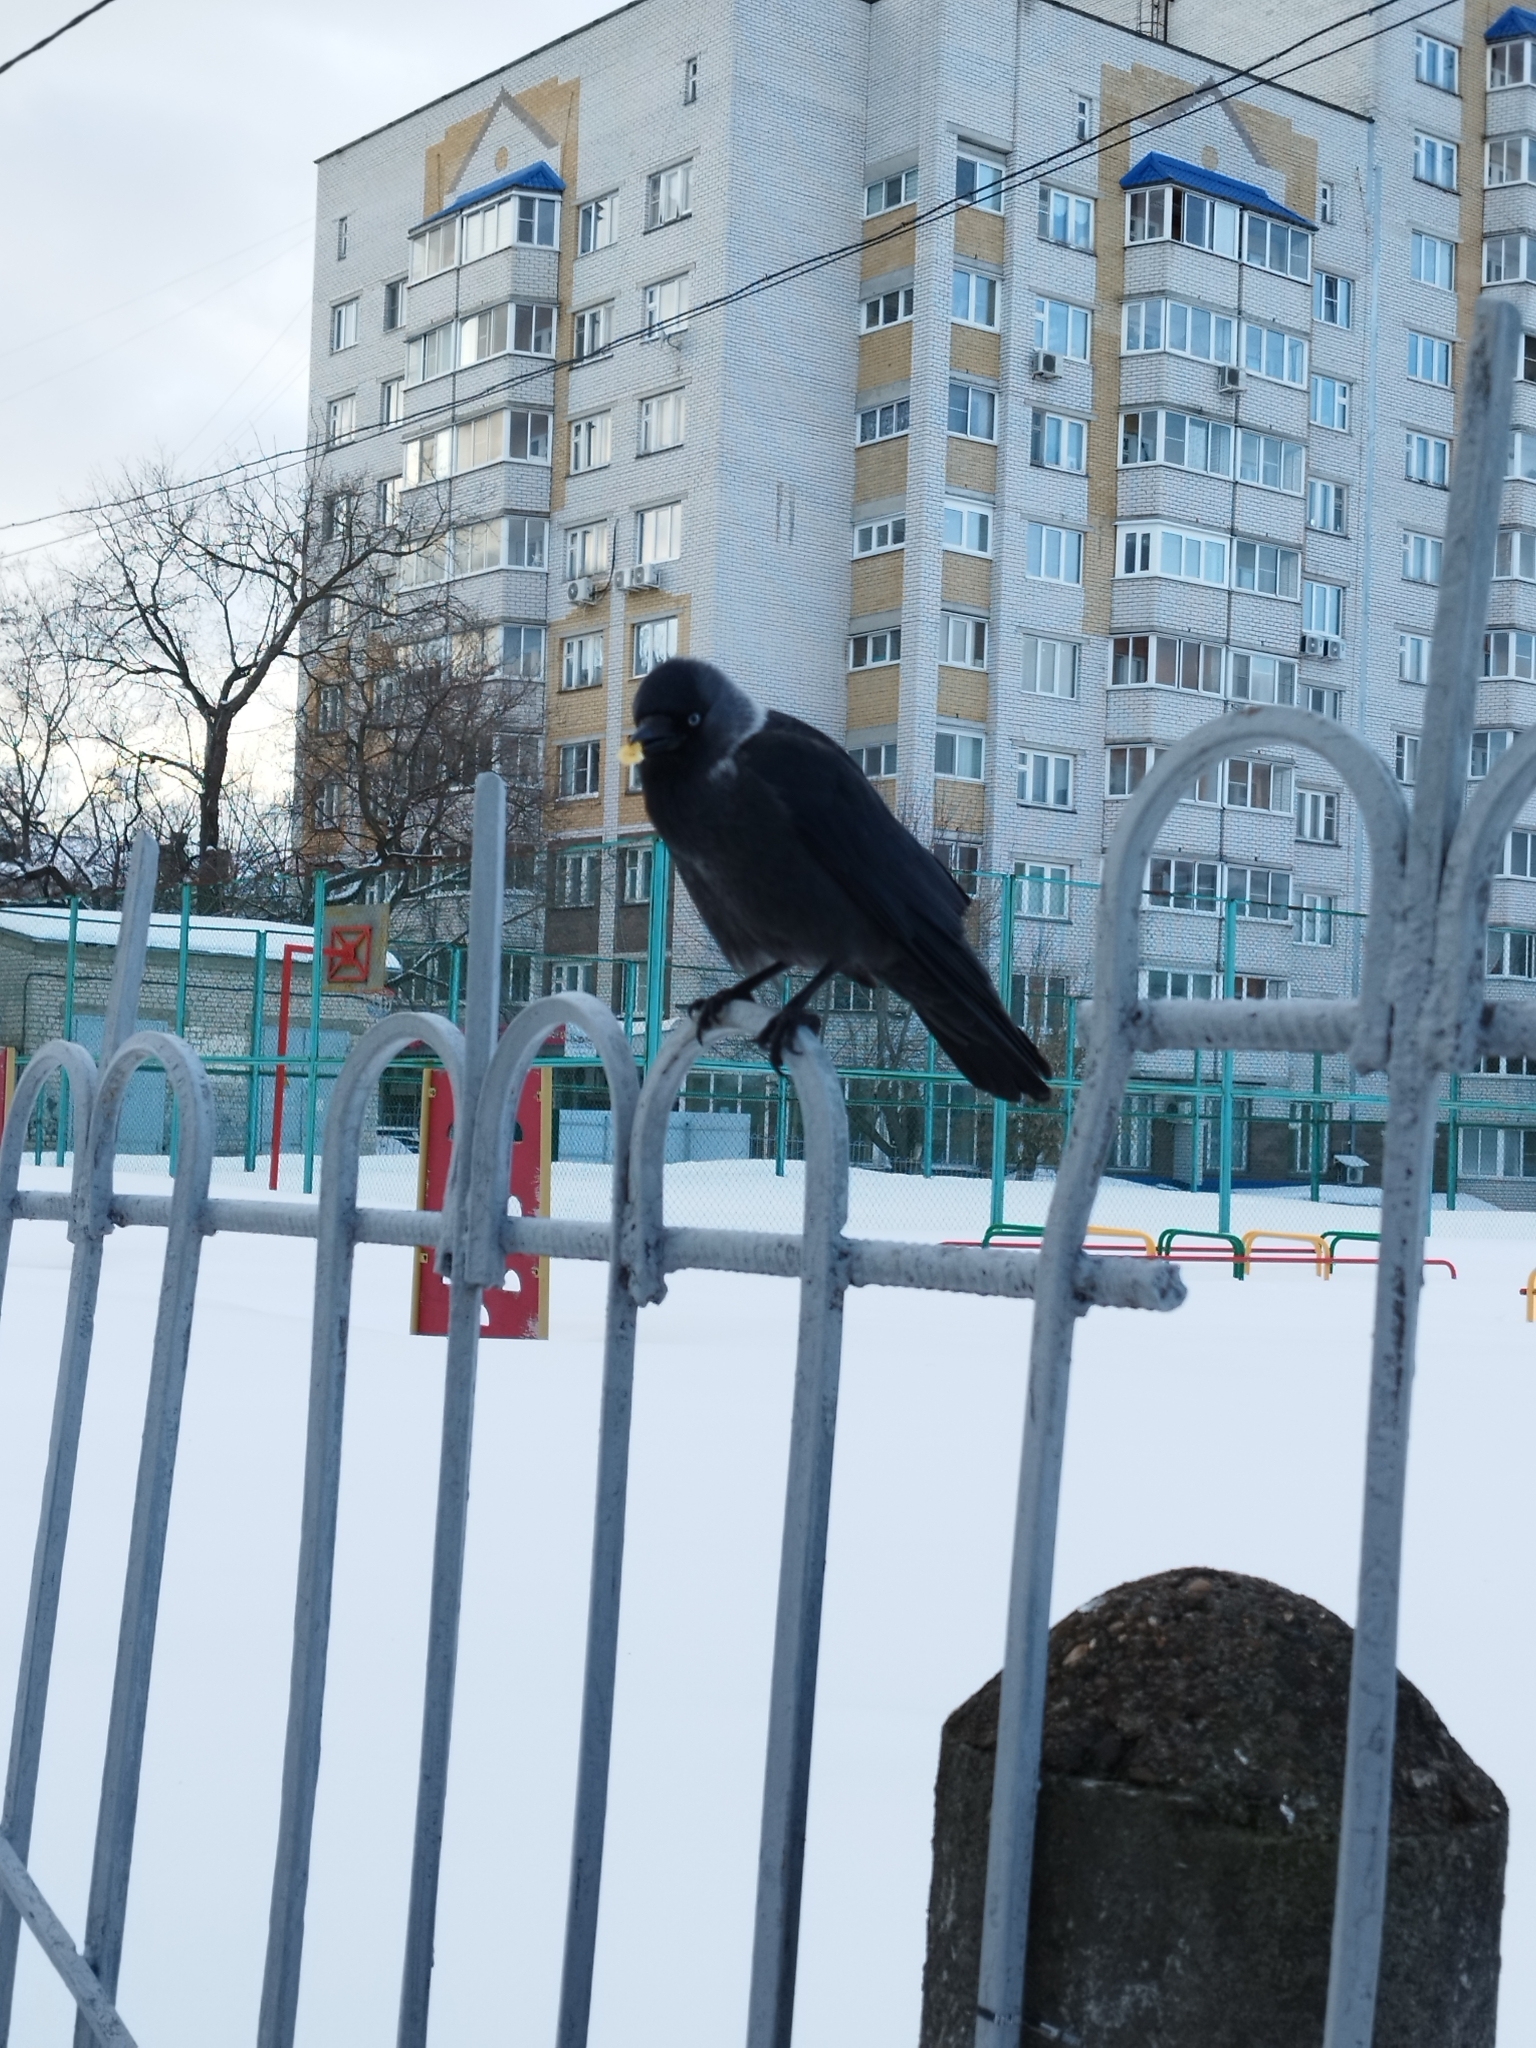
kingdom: Animalia
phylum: Chordata
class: Aves
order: Passeriformes
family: Corvidae
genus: Coloeus
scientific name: Coloeus monedula
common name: Western jackdaw
